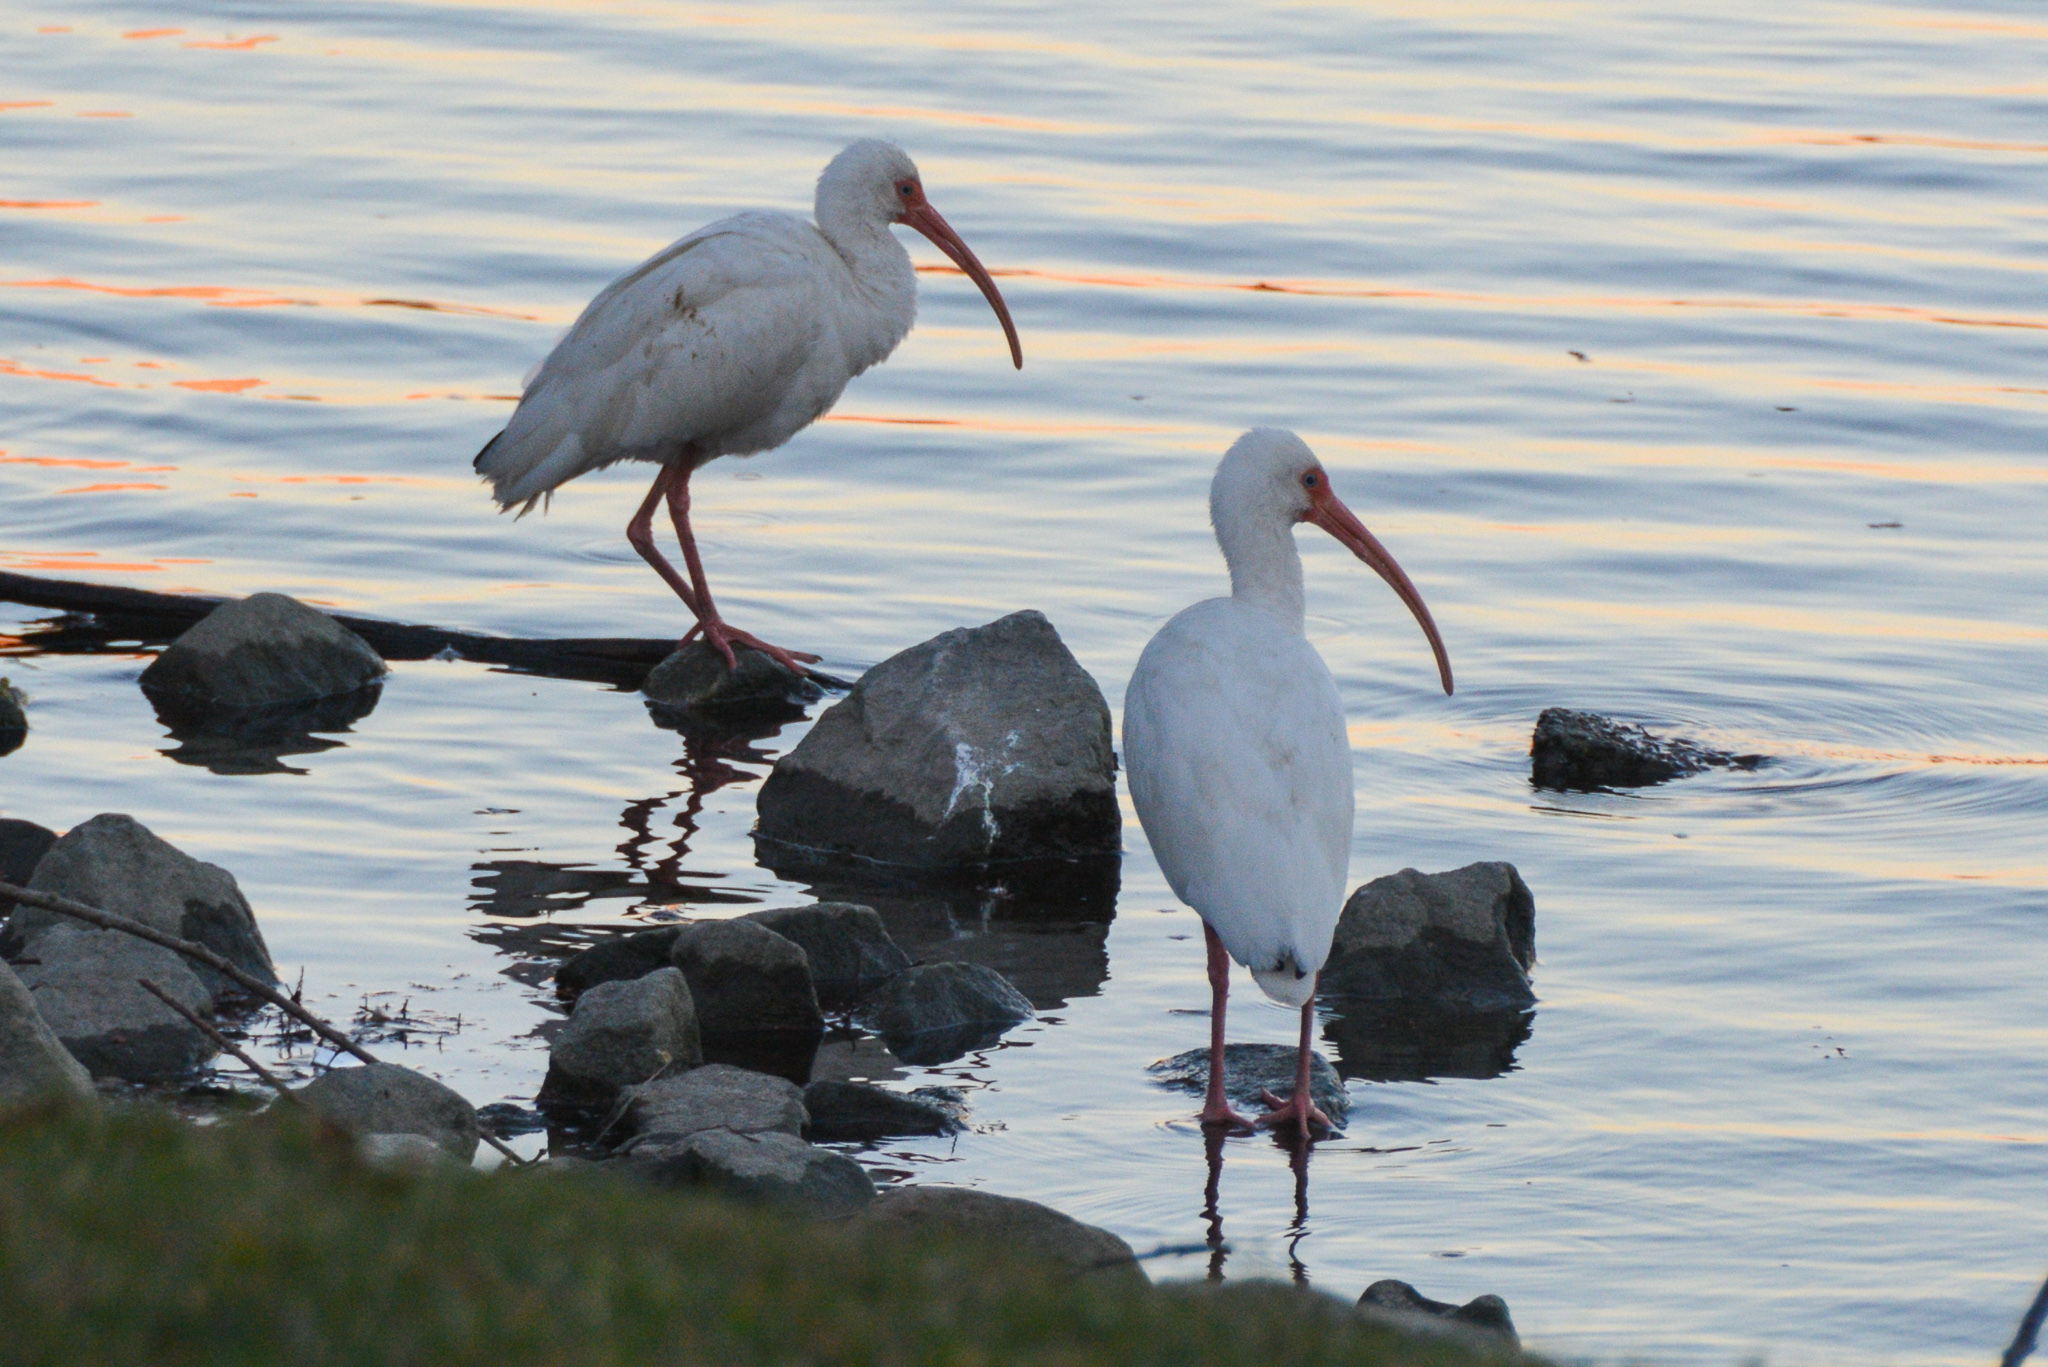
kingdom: Animalia
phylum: Chordata
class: Aves
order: Pelecaniformes
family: Threskiornithidae
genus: Eudocimus
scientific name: Eudocimus albus
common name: White ibis
